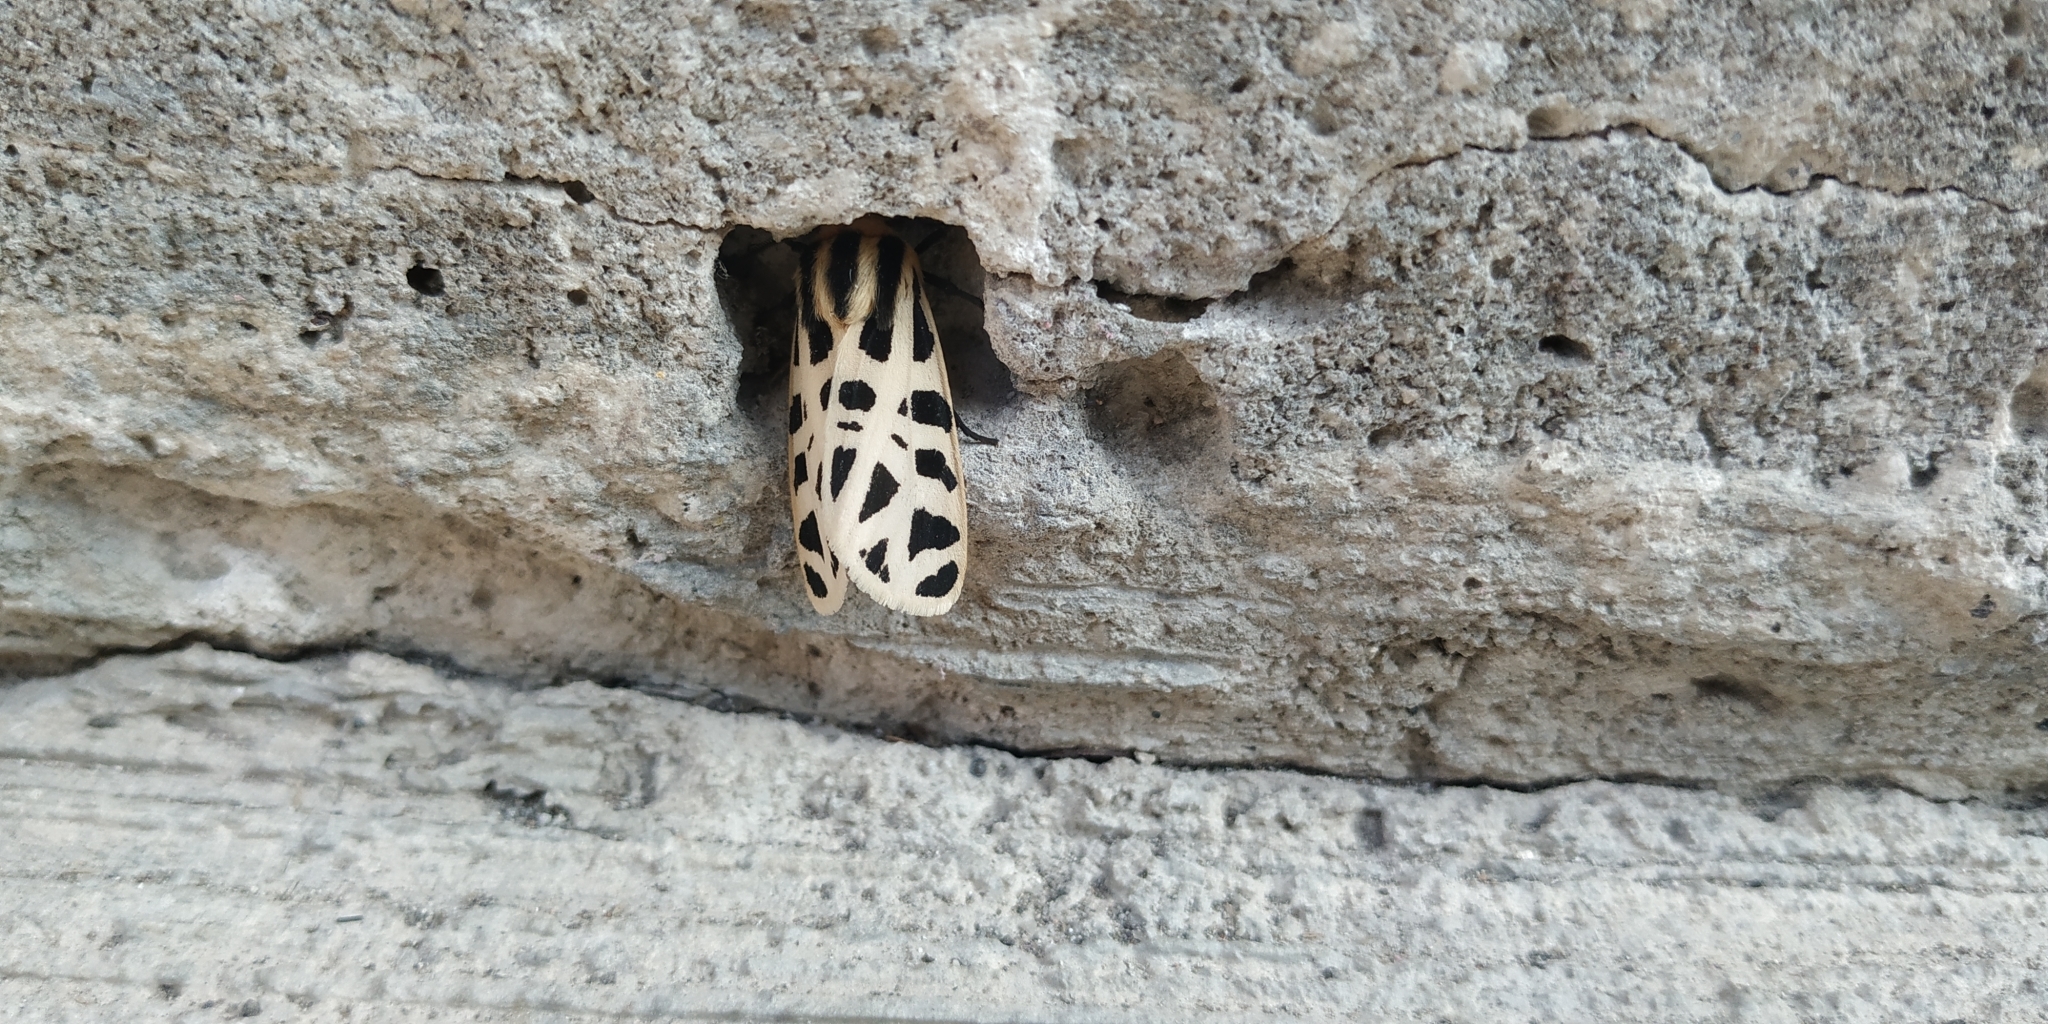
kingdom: Animalia
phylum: Arthropoda
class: Insecta
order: Lepidoptera
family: Erebidae
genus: Apantesis
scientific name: Apantesis
